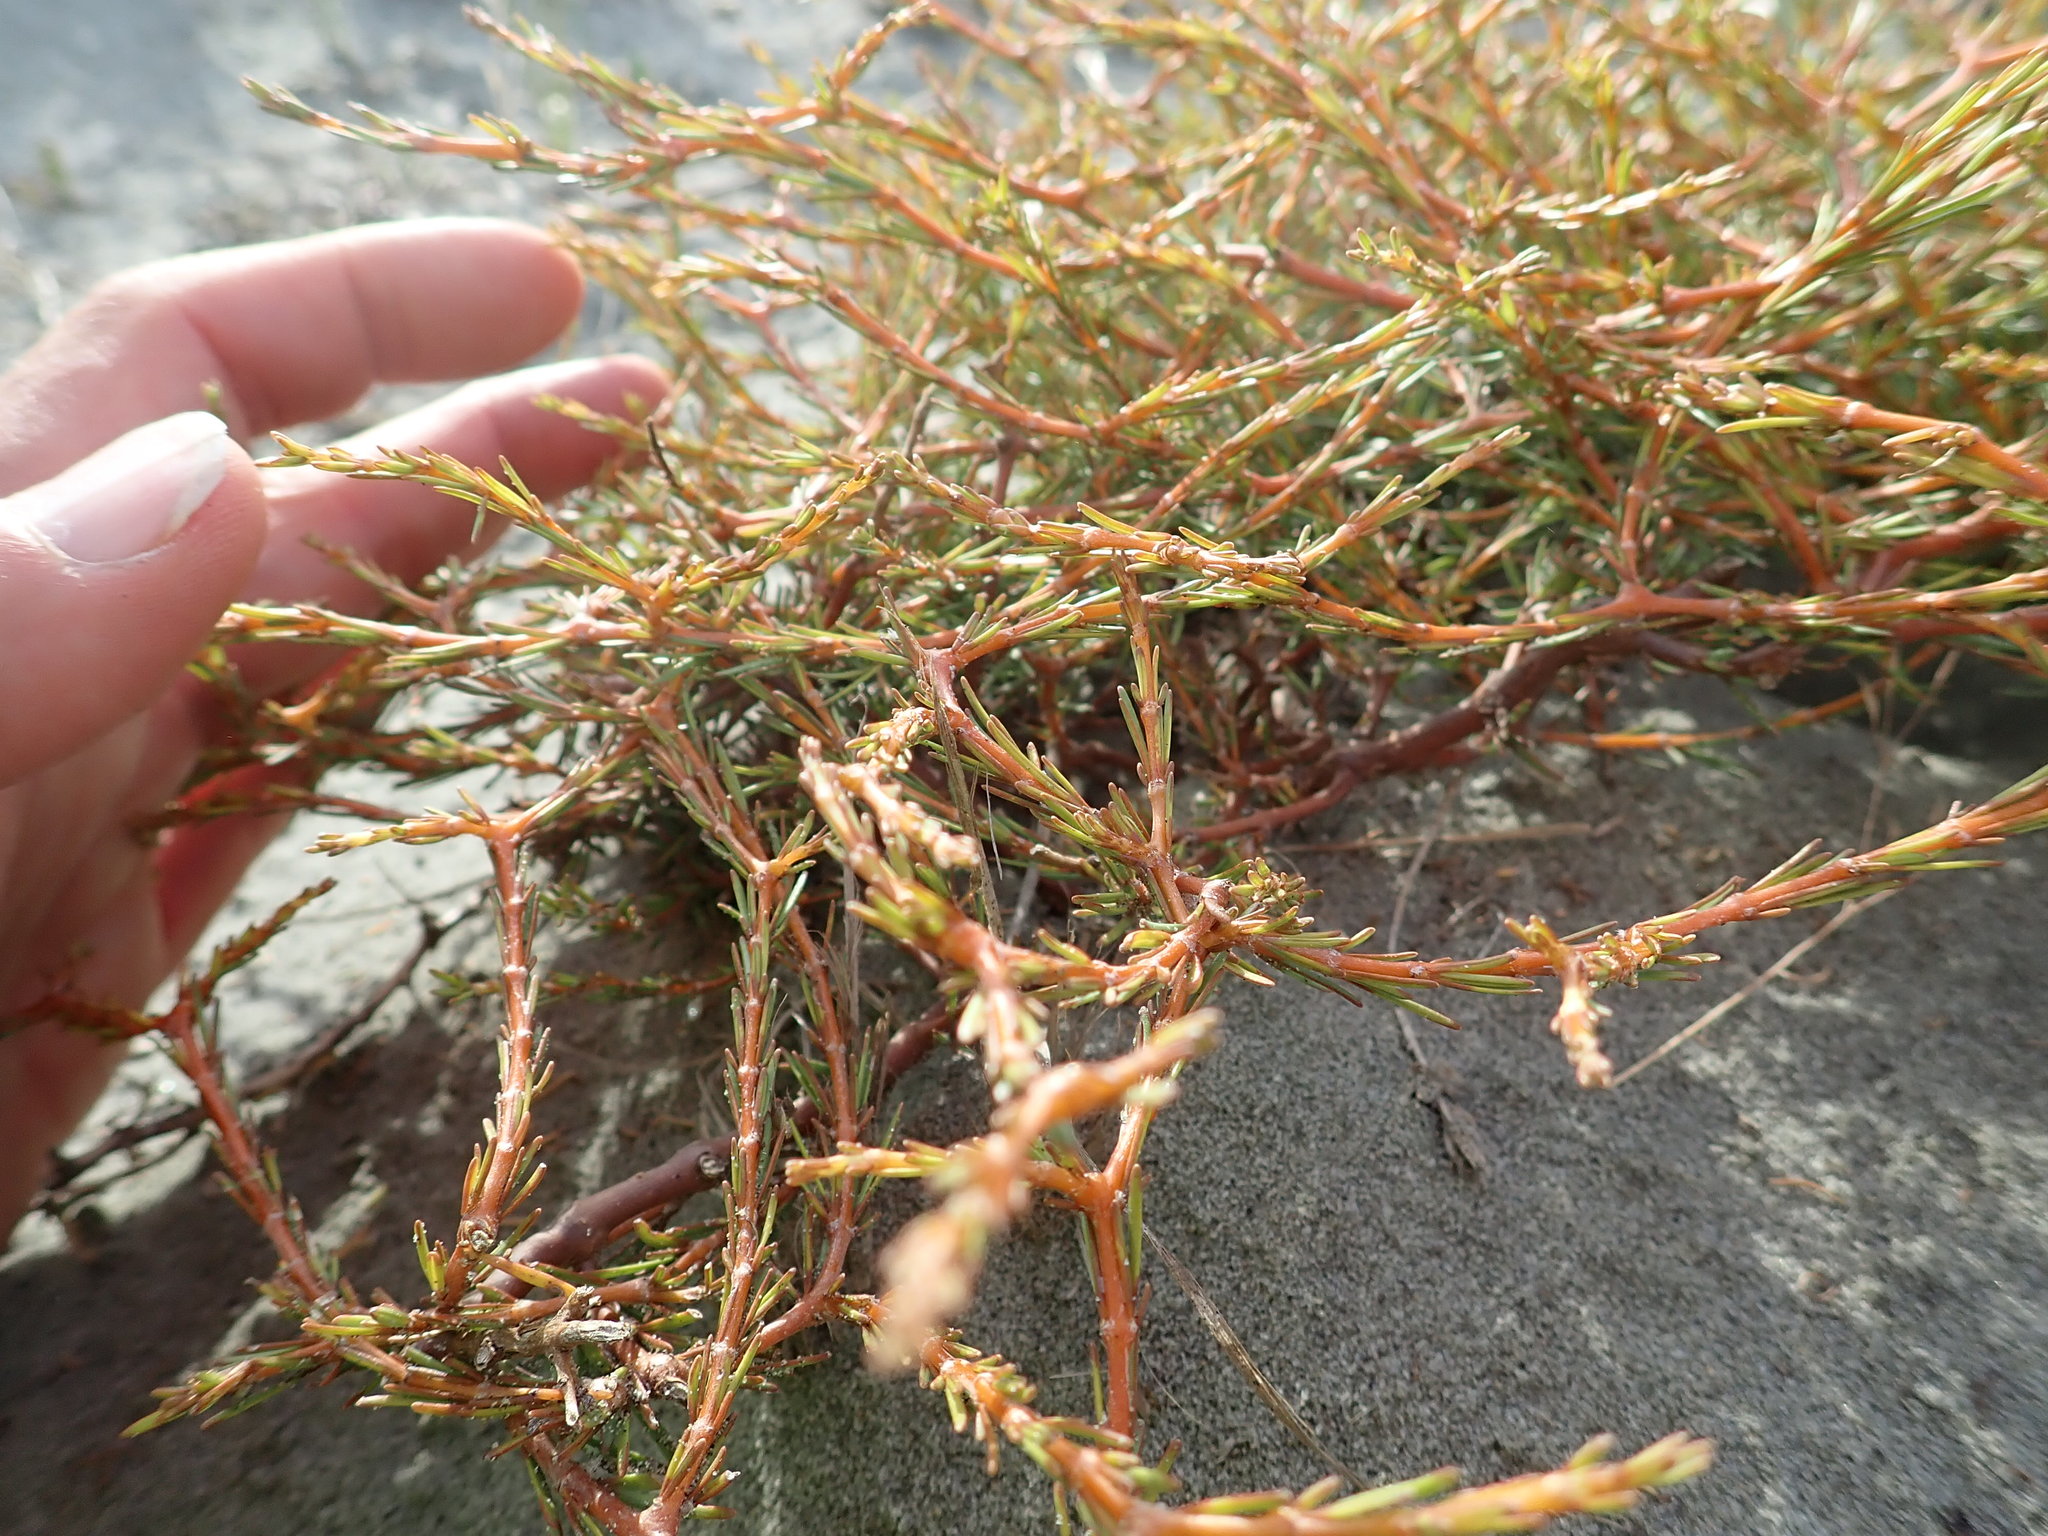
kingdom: Plantae
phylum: Tracheophyta
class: Magnoliopsida
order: Gentianales
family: Rubiaceae
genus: Coprosma
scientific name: Coprosma acerosa
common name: Sand coprosma
